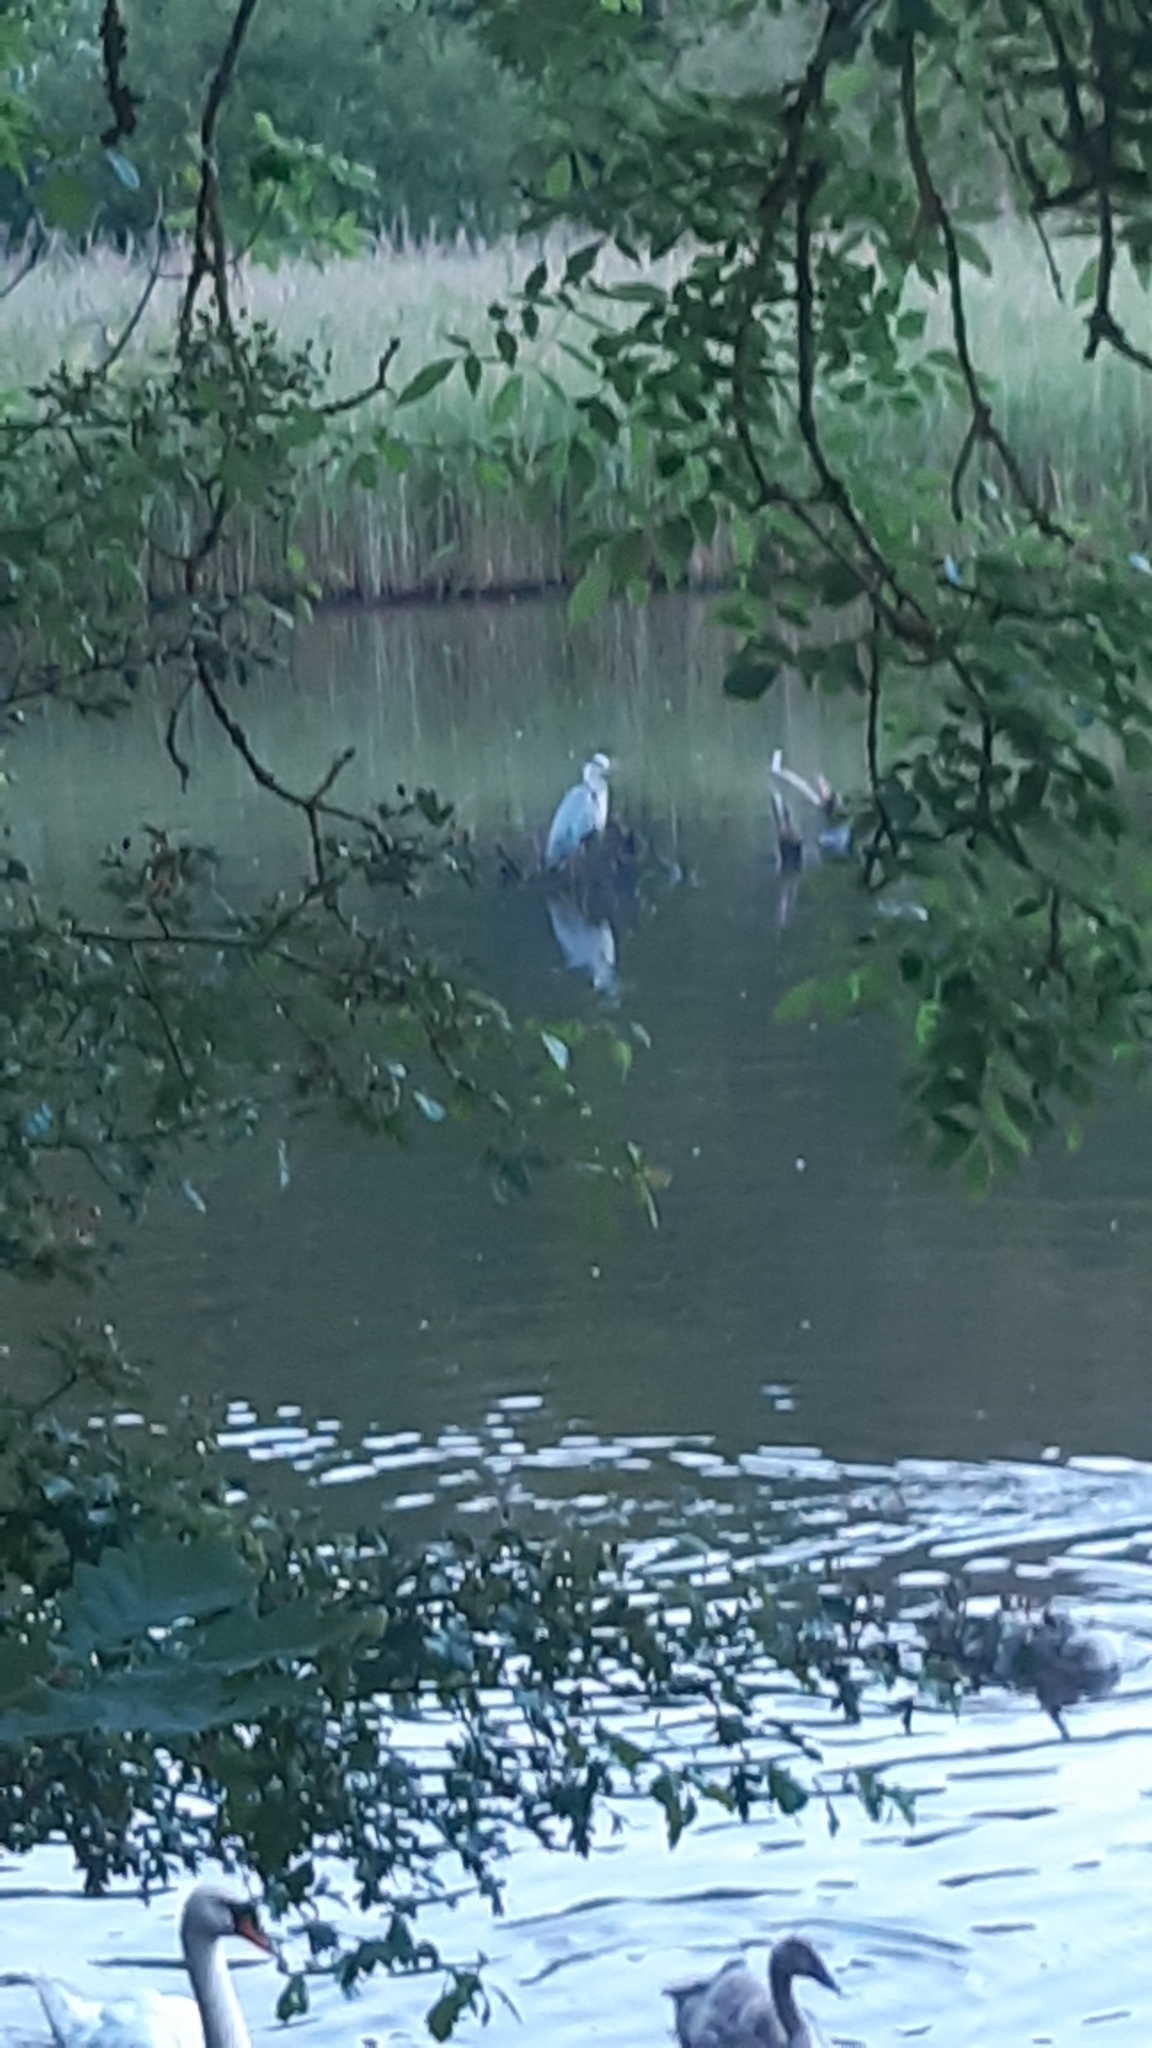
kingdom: Animalia
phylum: Chordata
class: Aves
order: Pelecaniformes
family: Ardeidae
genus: Ardea
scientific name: Ardea cinerea
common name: Grey heron
